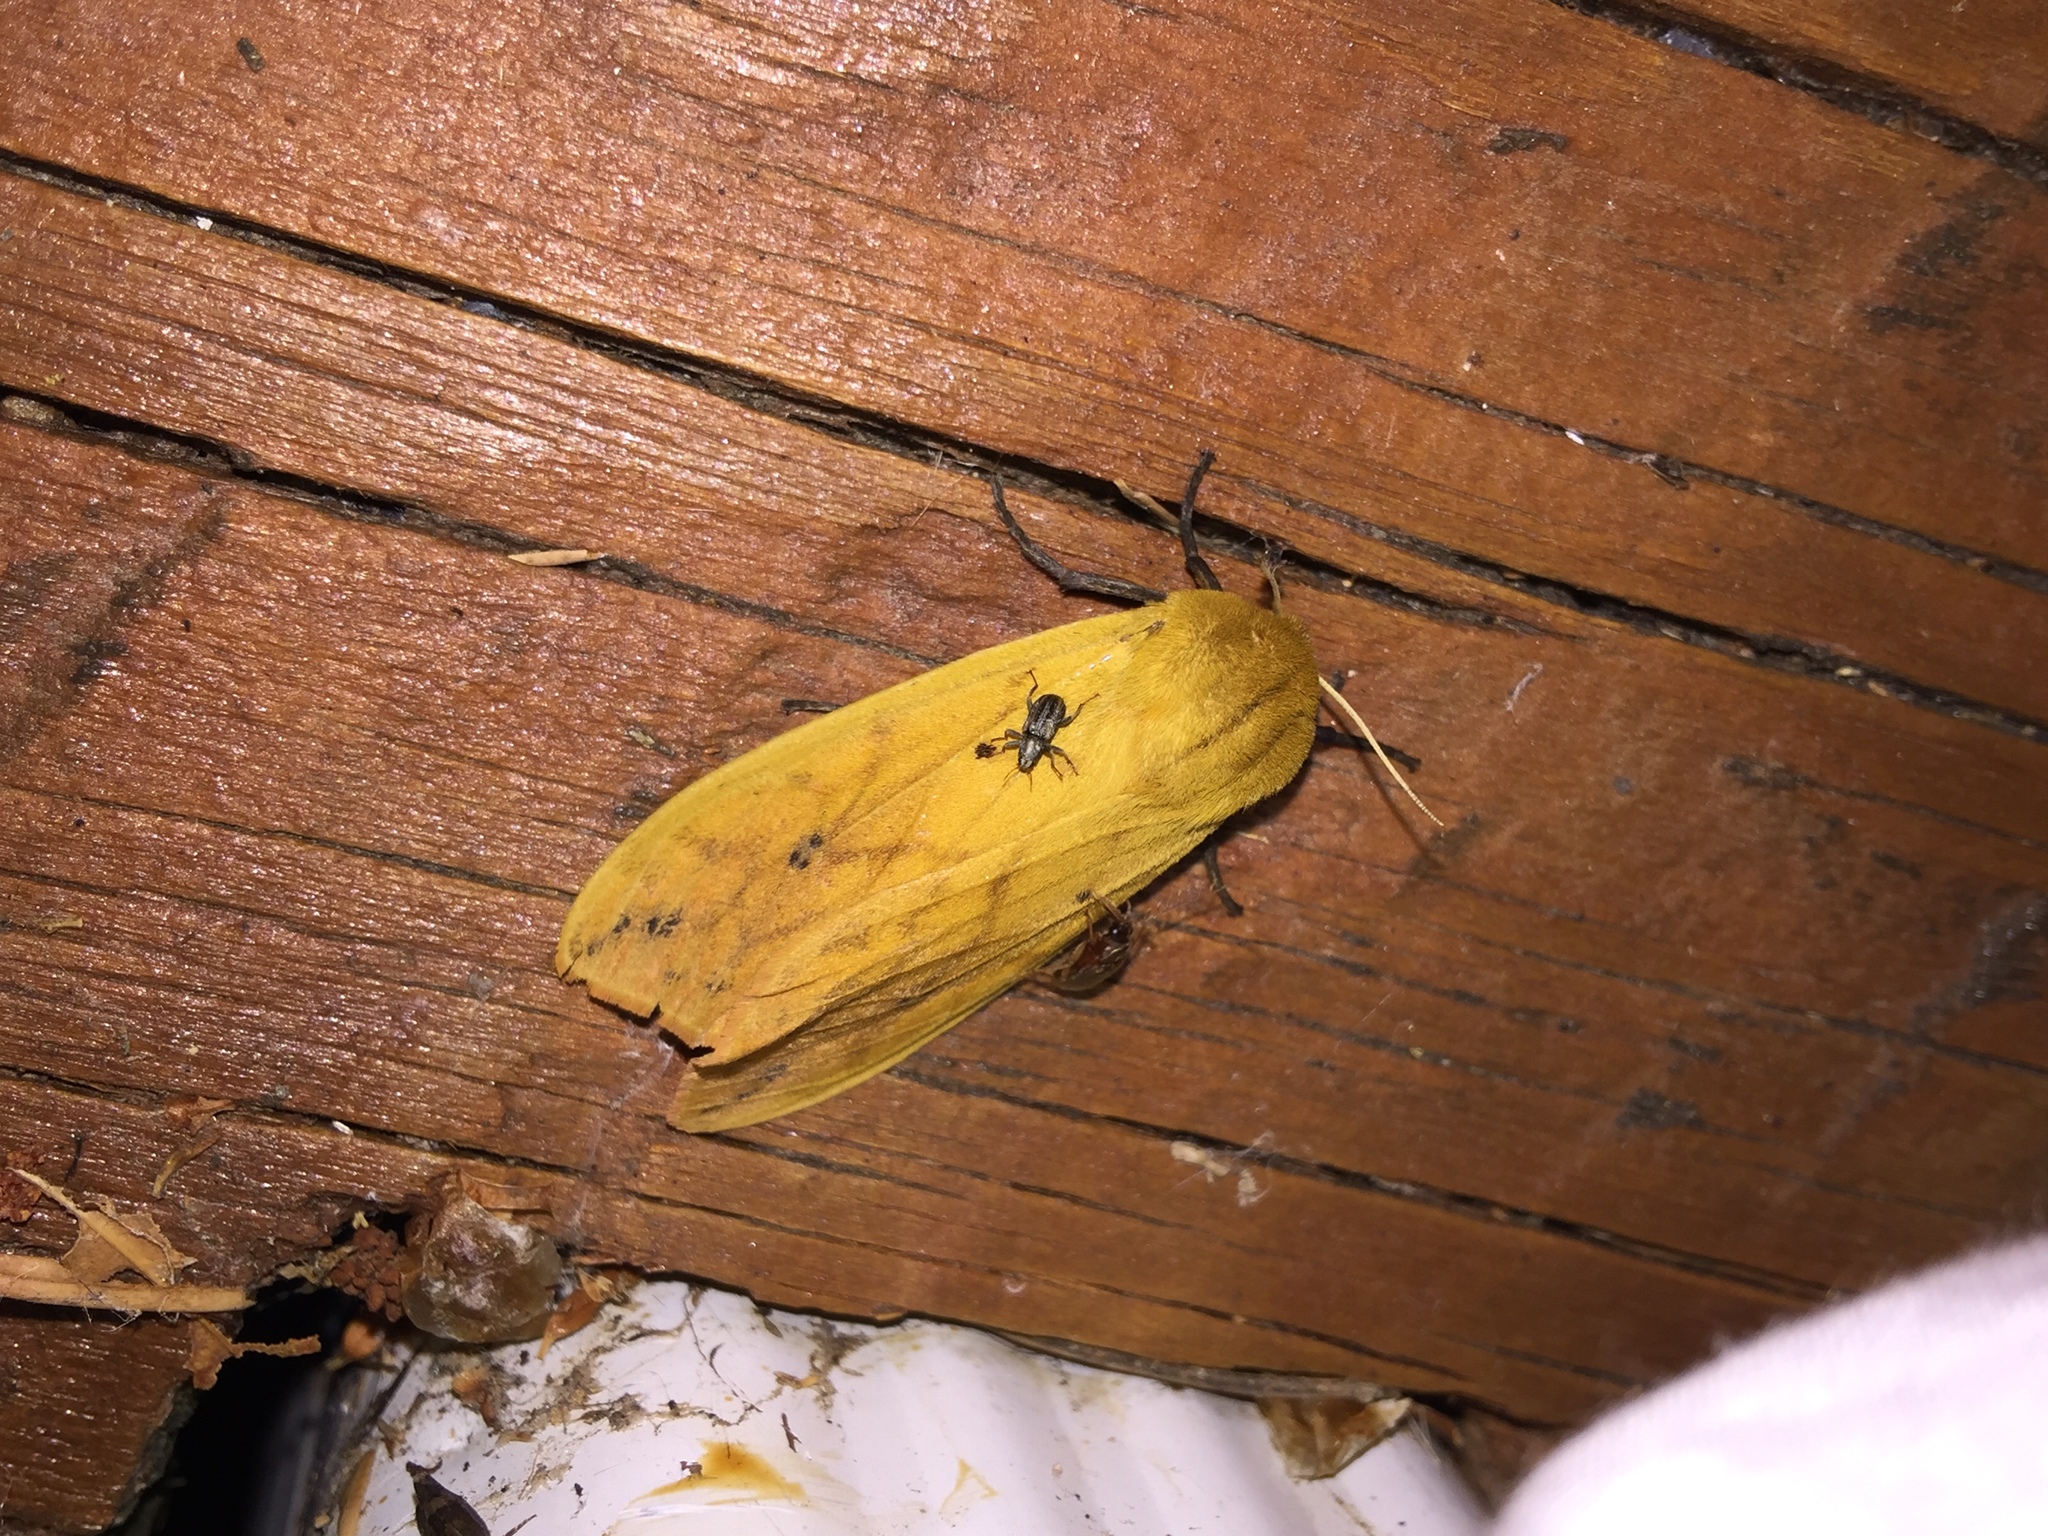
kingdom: Animalia
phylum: Arthropoda
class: Insecta
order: Lepidoptera
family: Erebidae
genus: Pyrrharctia
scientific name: Pyrrharctia isabella
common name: Isabella tiger moth
